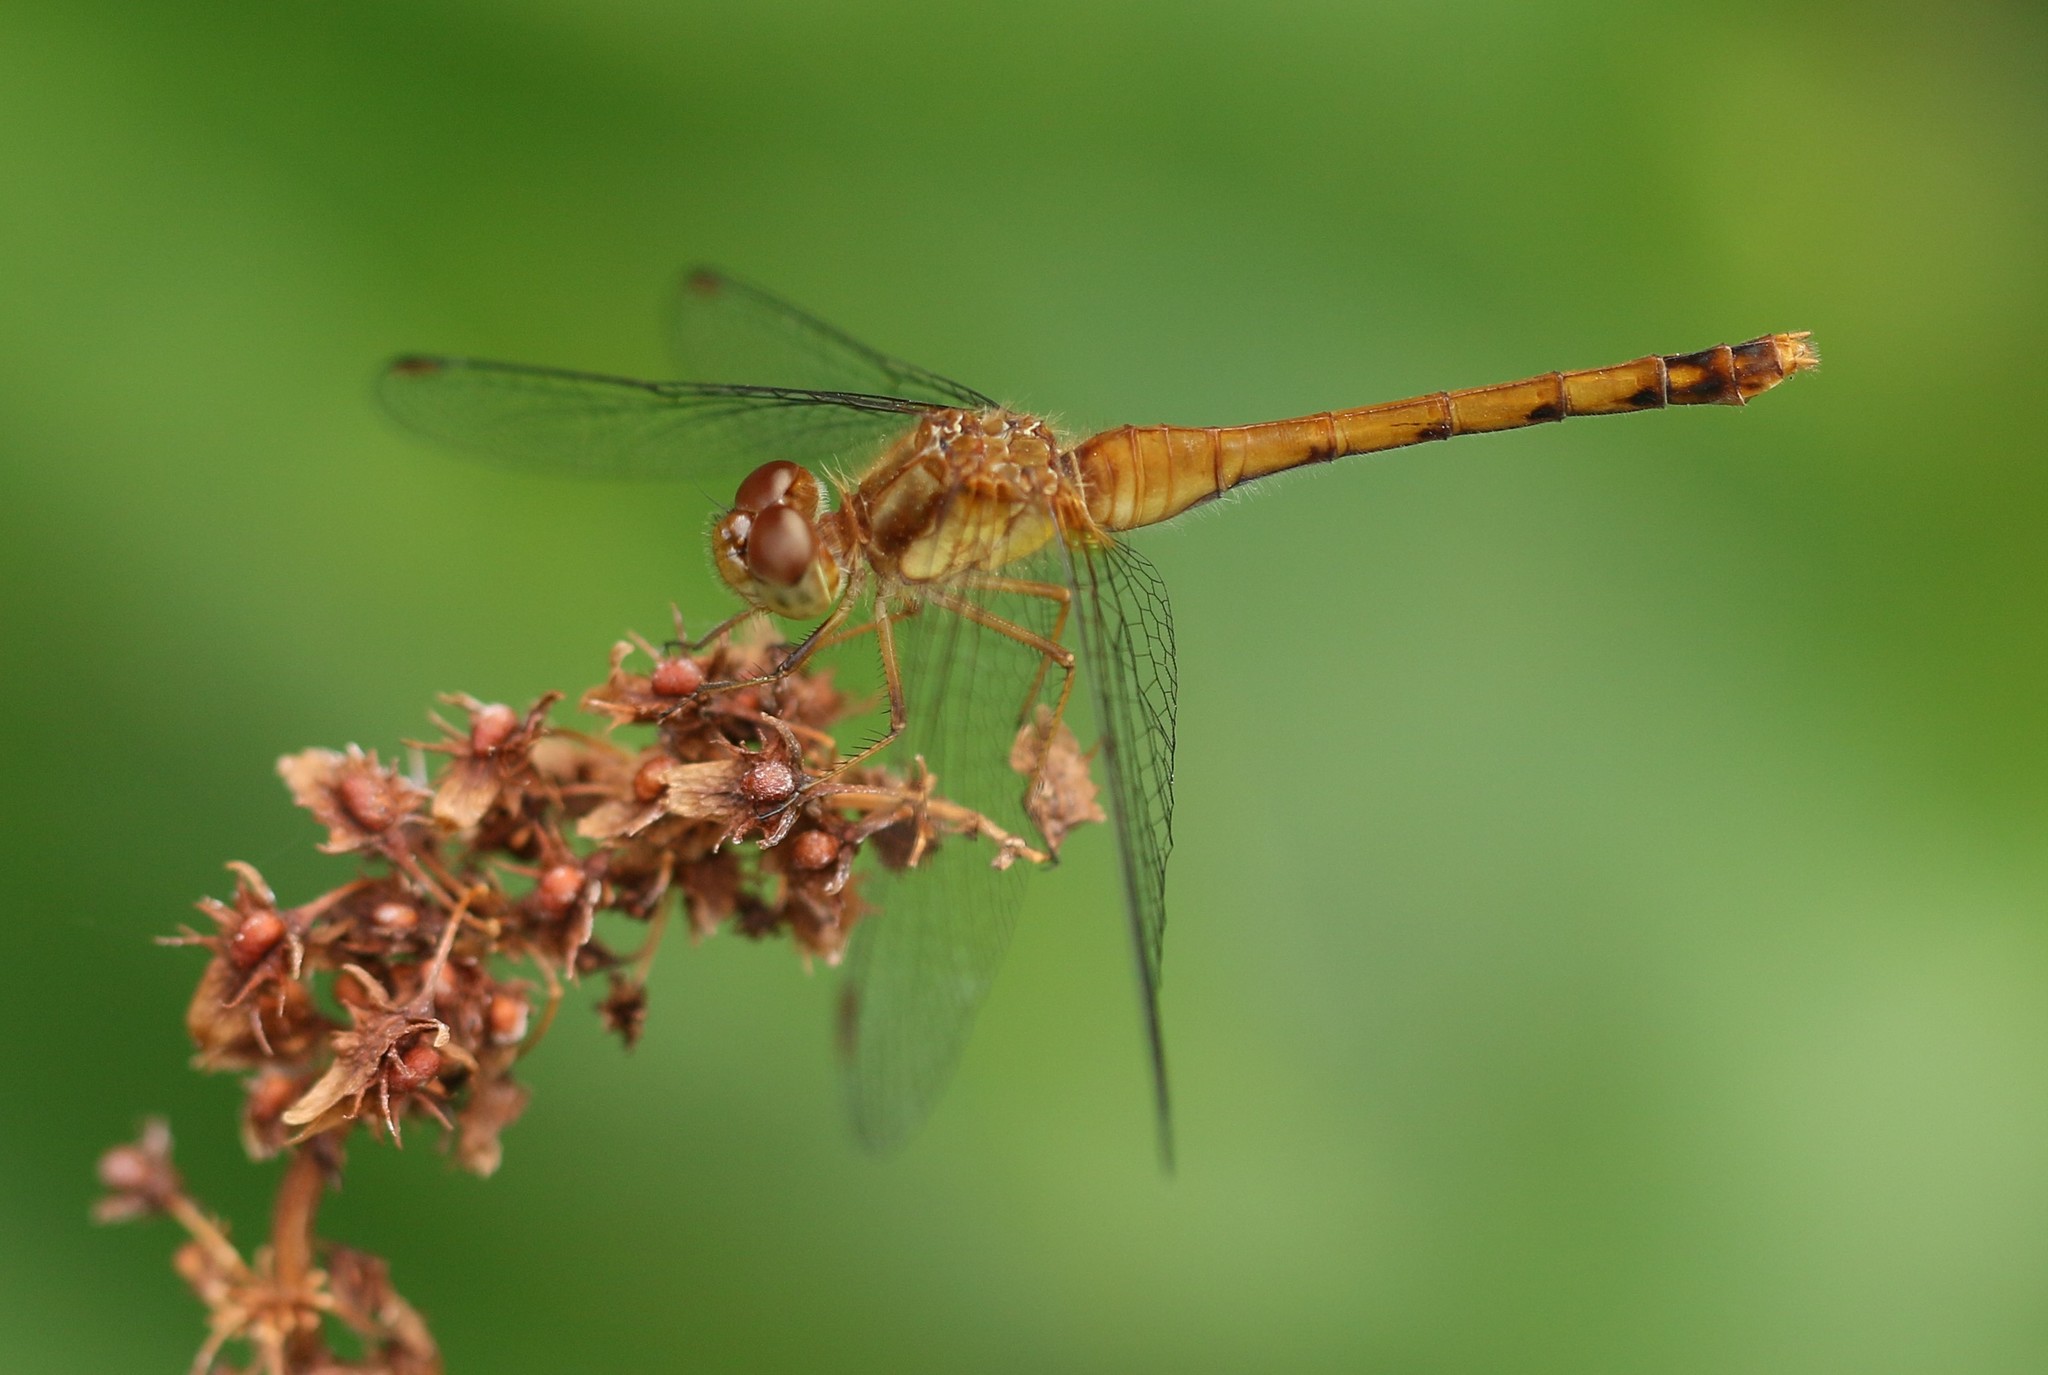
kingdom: Animalia
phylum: Arthropoda
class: Insecta
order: Odonata
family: Libellulidae
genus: Sympetrum
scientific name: Sympetrum vicinum
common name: Autumn meadowhawk
